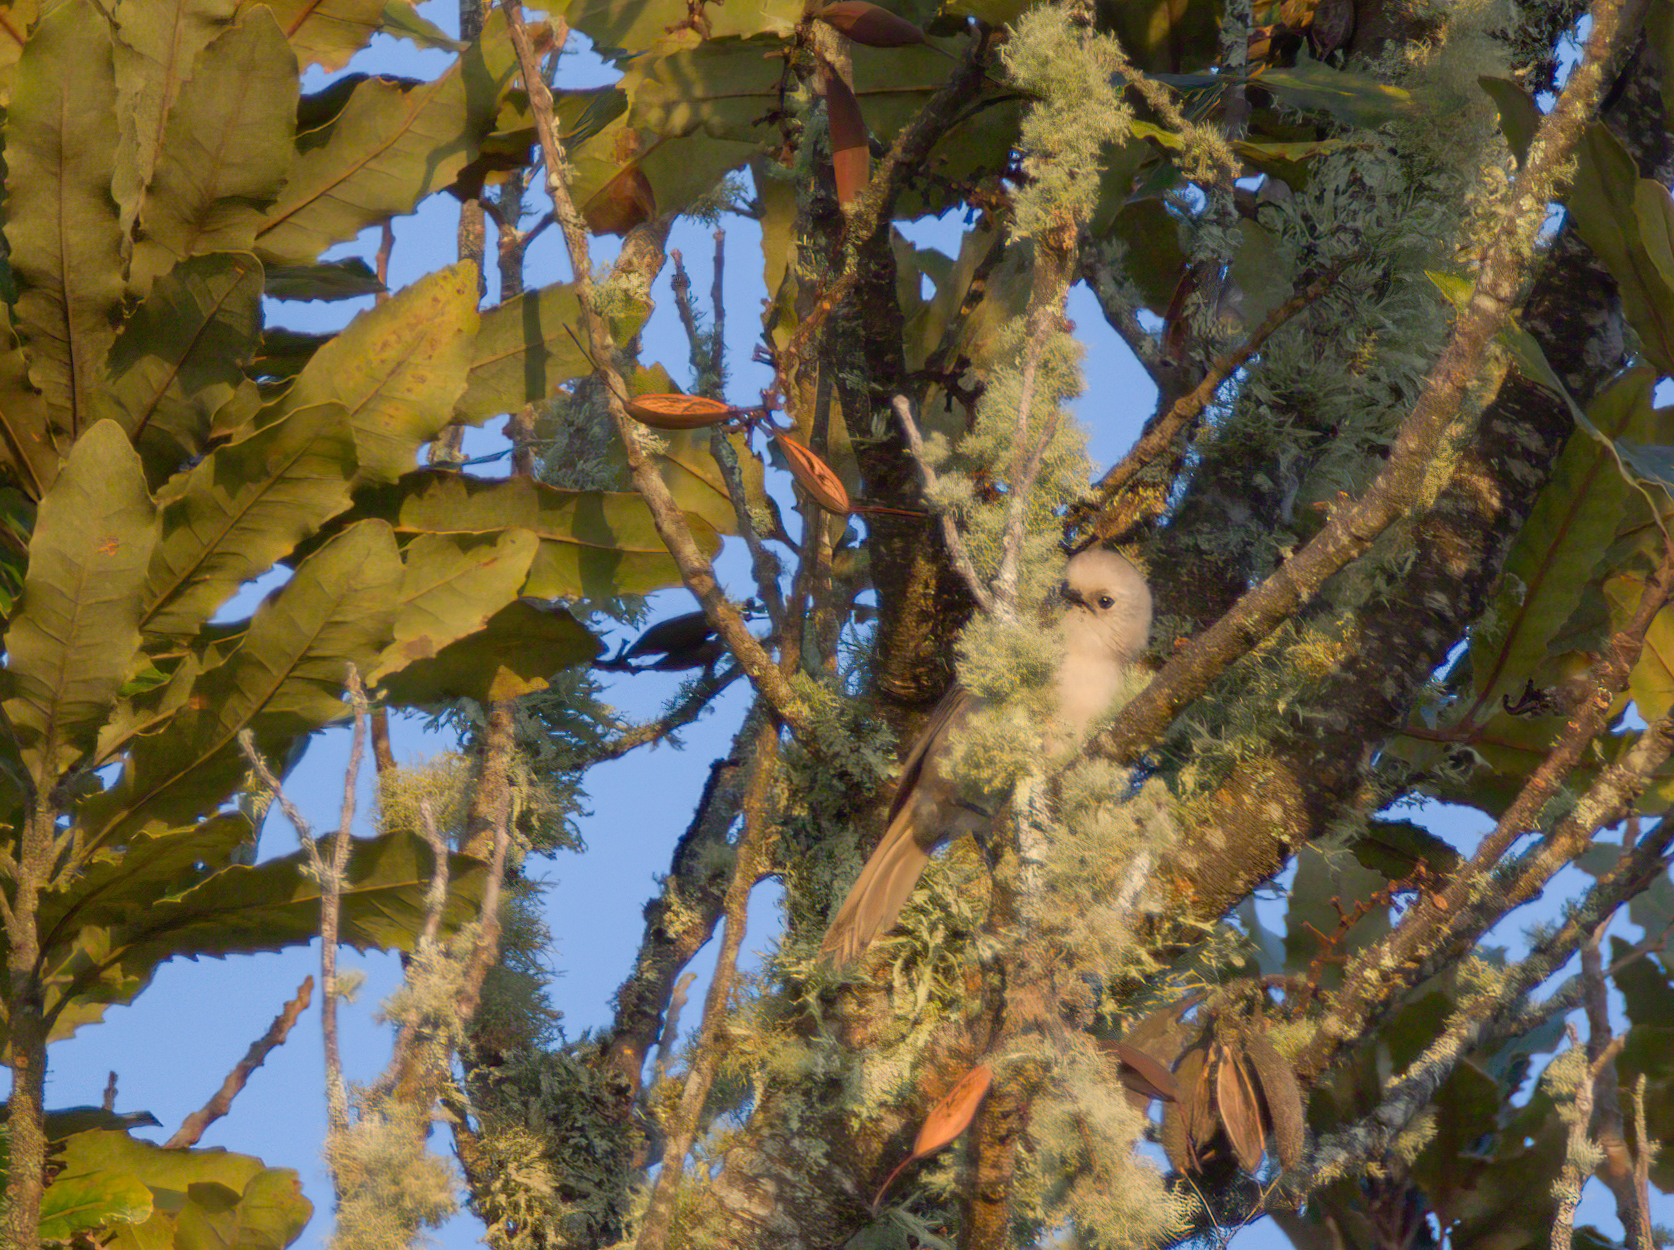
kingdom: Animalia
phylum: Chordata
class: Aves
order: Passeriformes
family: Acanthizidae
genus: Mohoua
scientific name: Mohoua albicilla
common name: Whitehead
